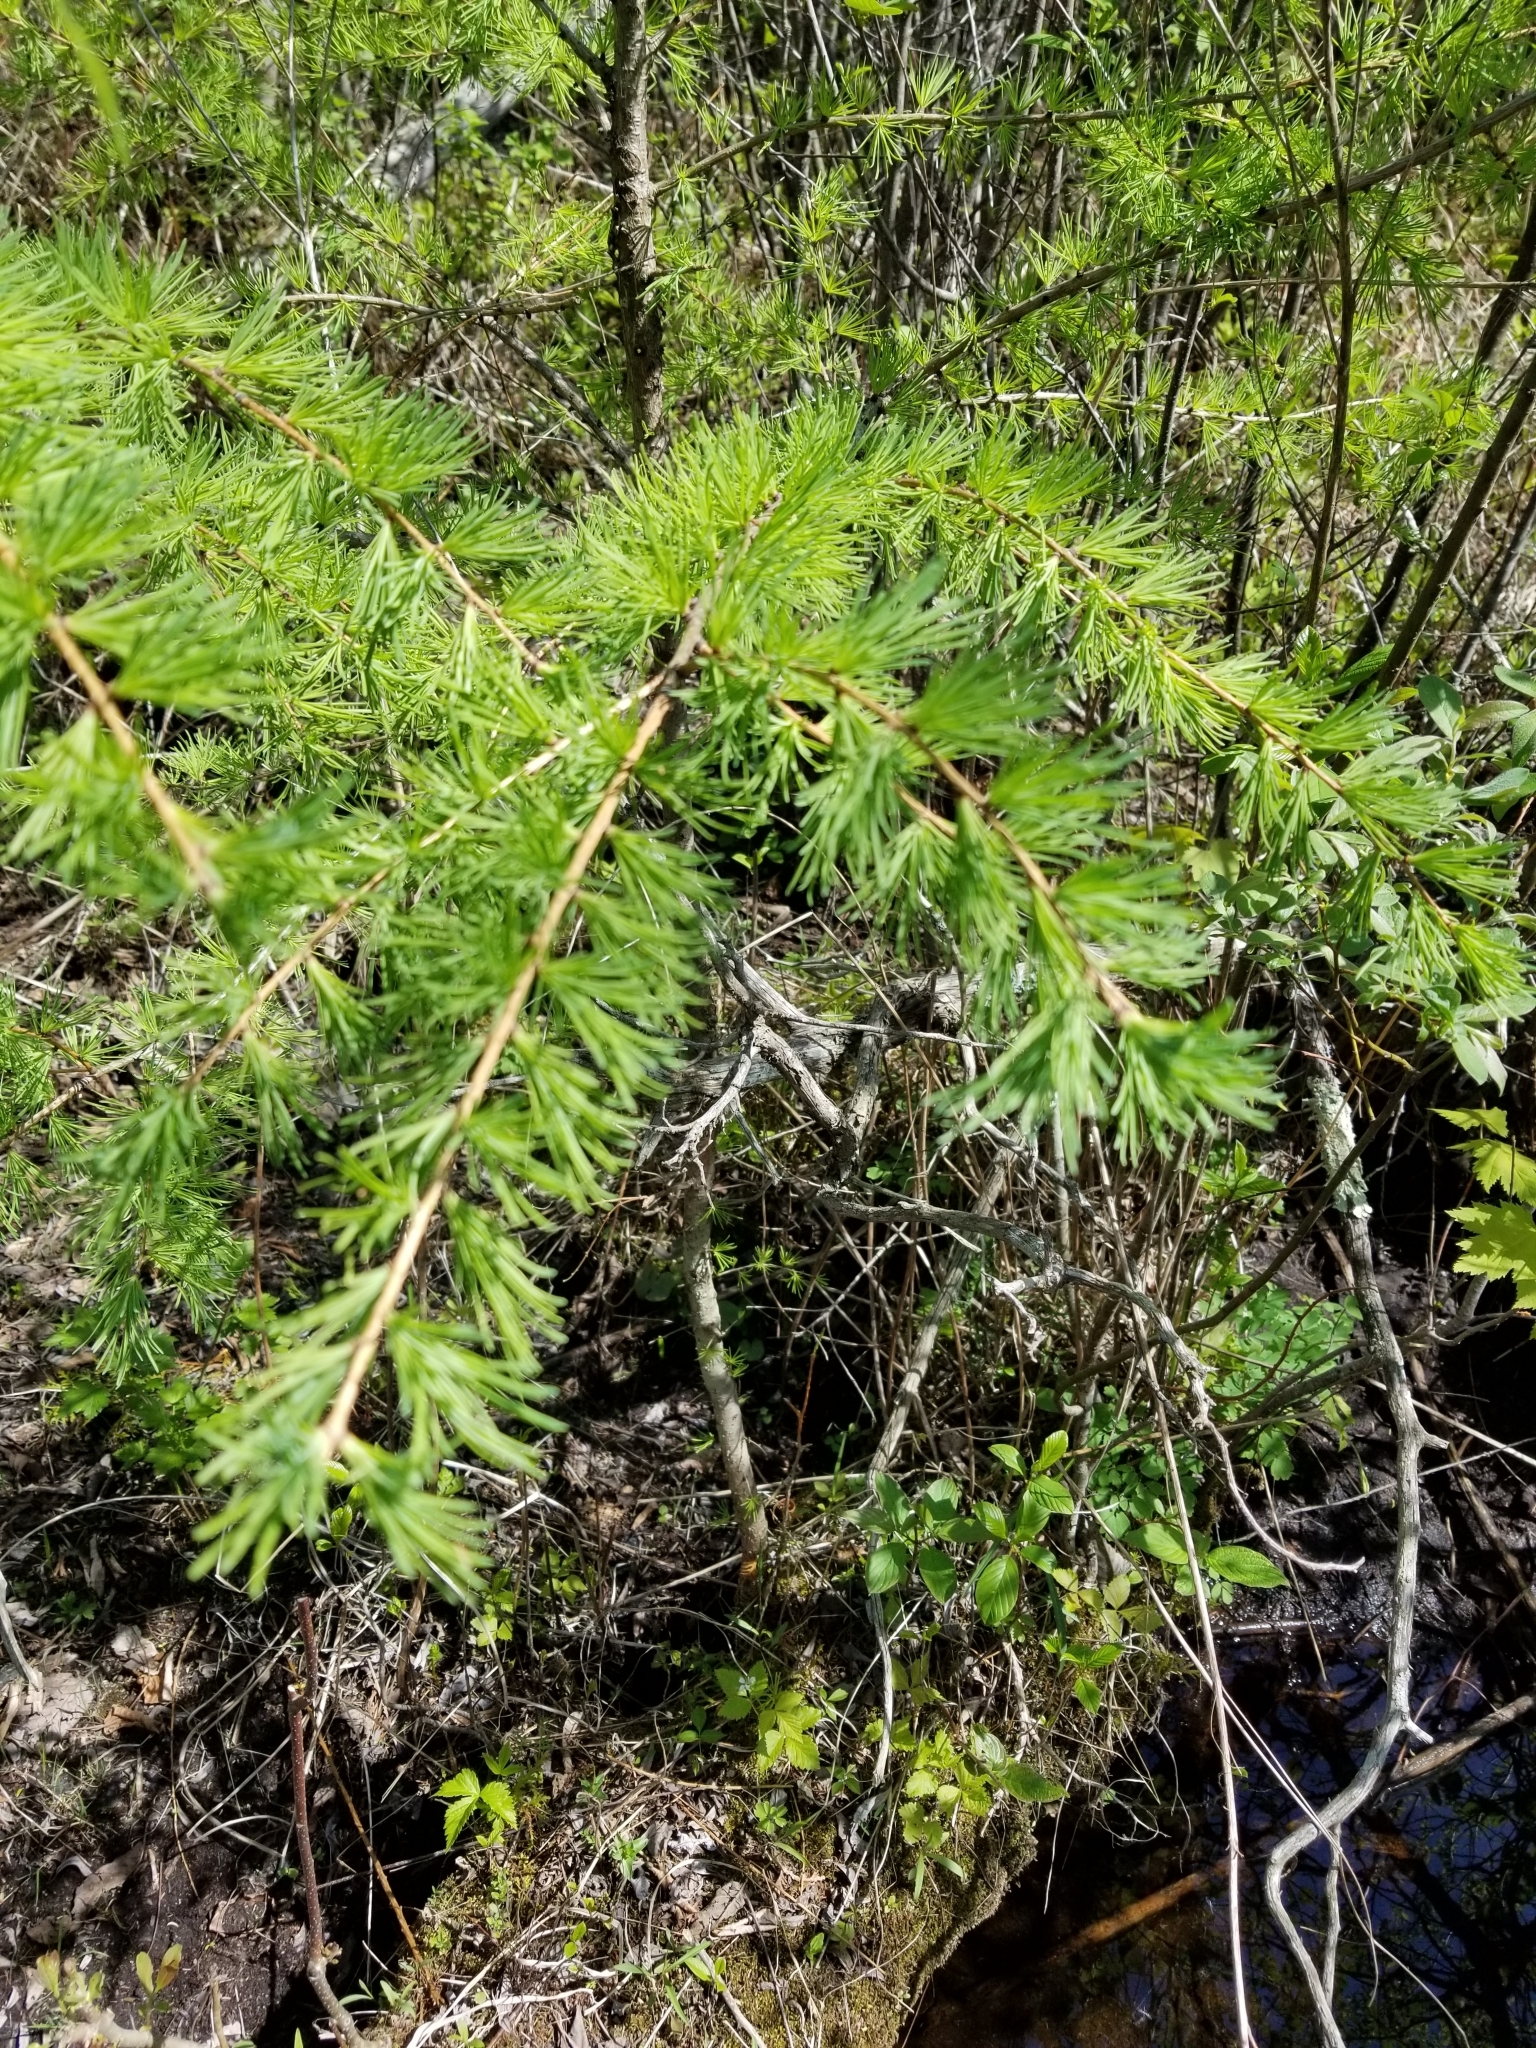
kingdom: Plantae
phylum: Tracheophyta
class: Pinopsida
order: Pinales
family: Pinaceae
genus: Larix
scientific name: Larix laricina
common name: American larch
